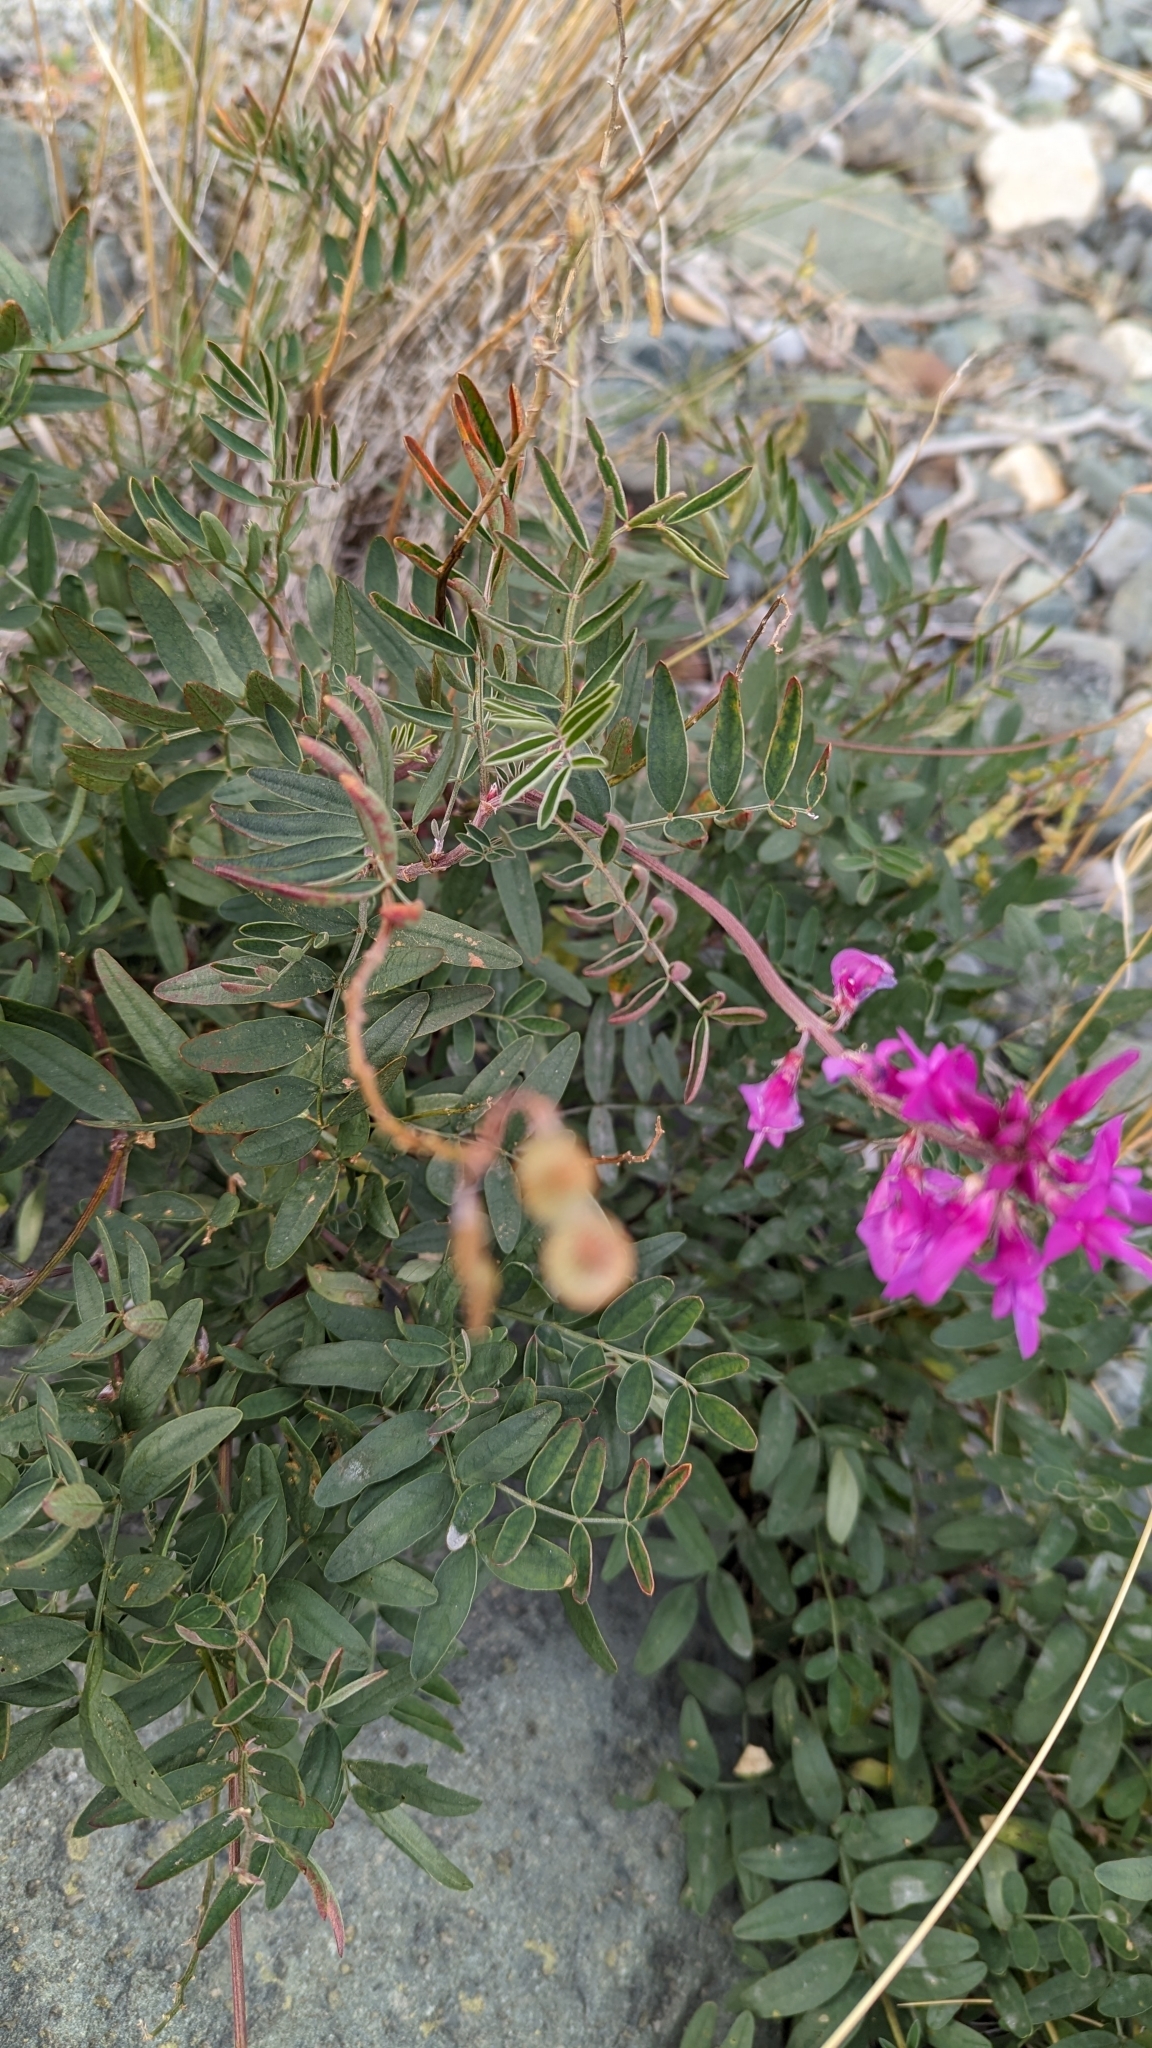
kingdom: Plantae
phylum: Tracheophyta
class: Magnoliopsida
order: Fabales
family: Fabaceae
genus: Hedysarum
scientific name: Hedysarum boreale
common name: Northern sweet-vetch
